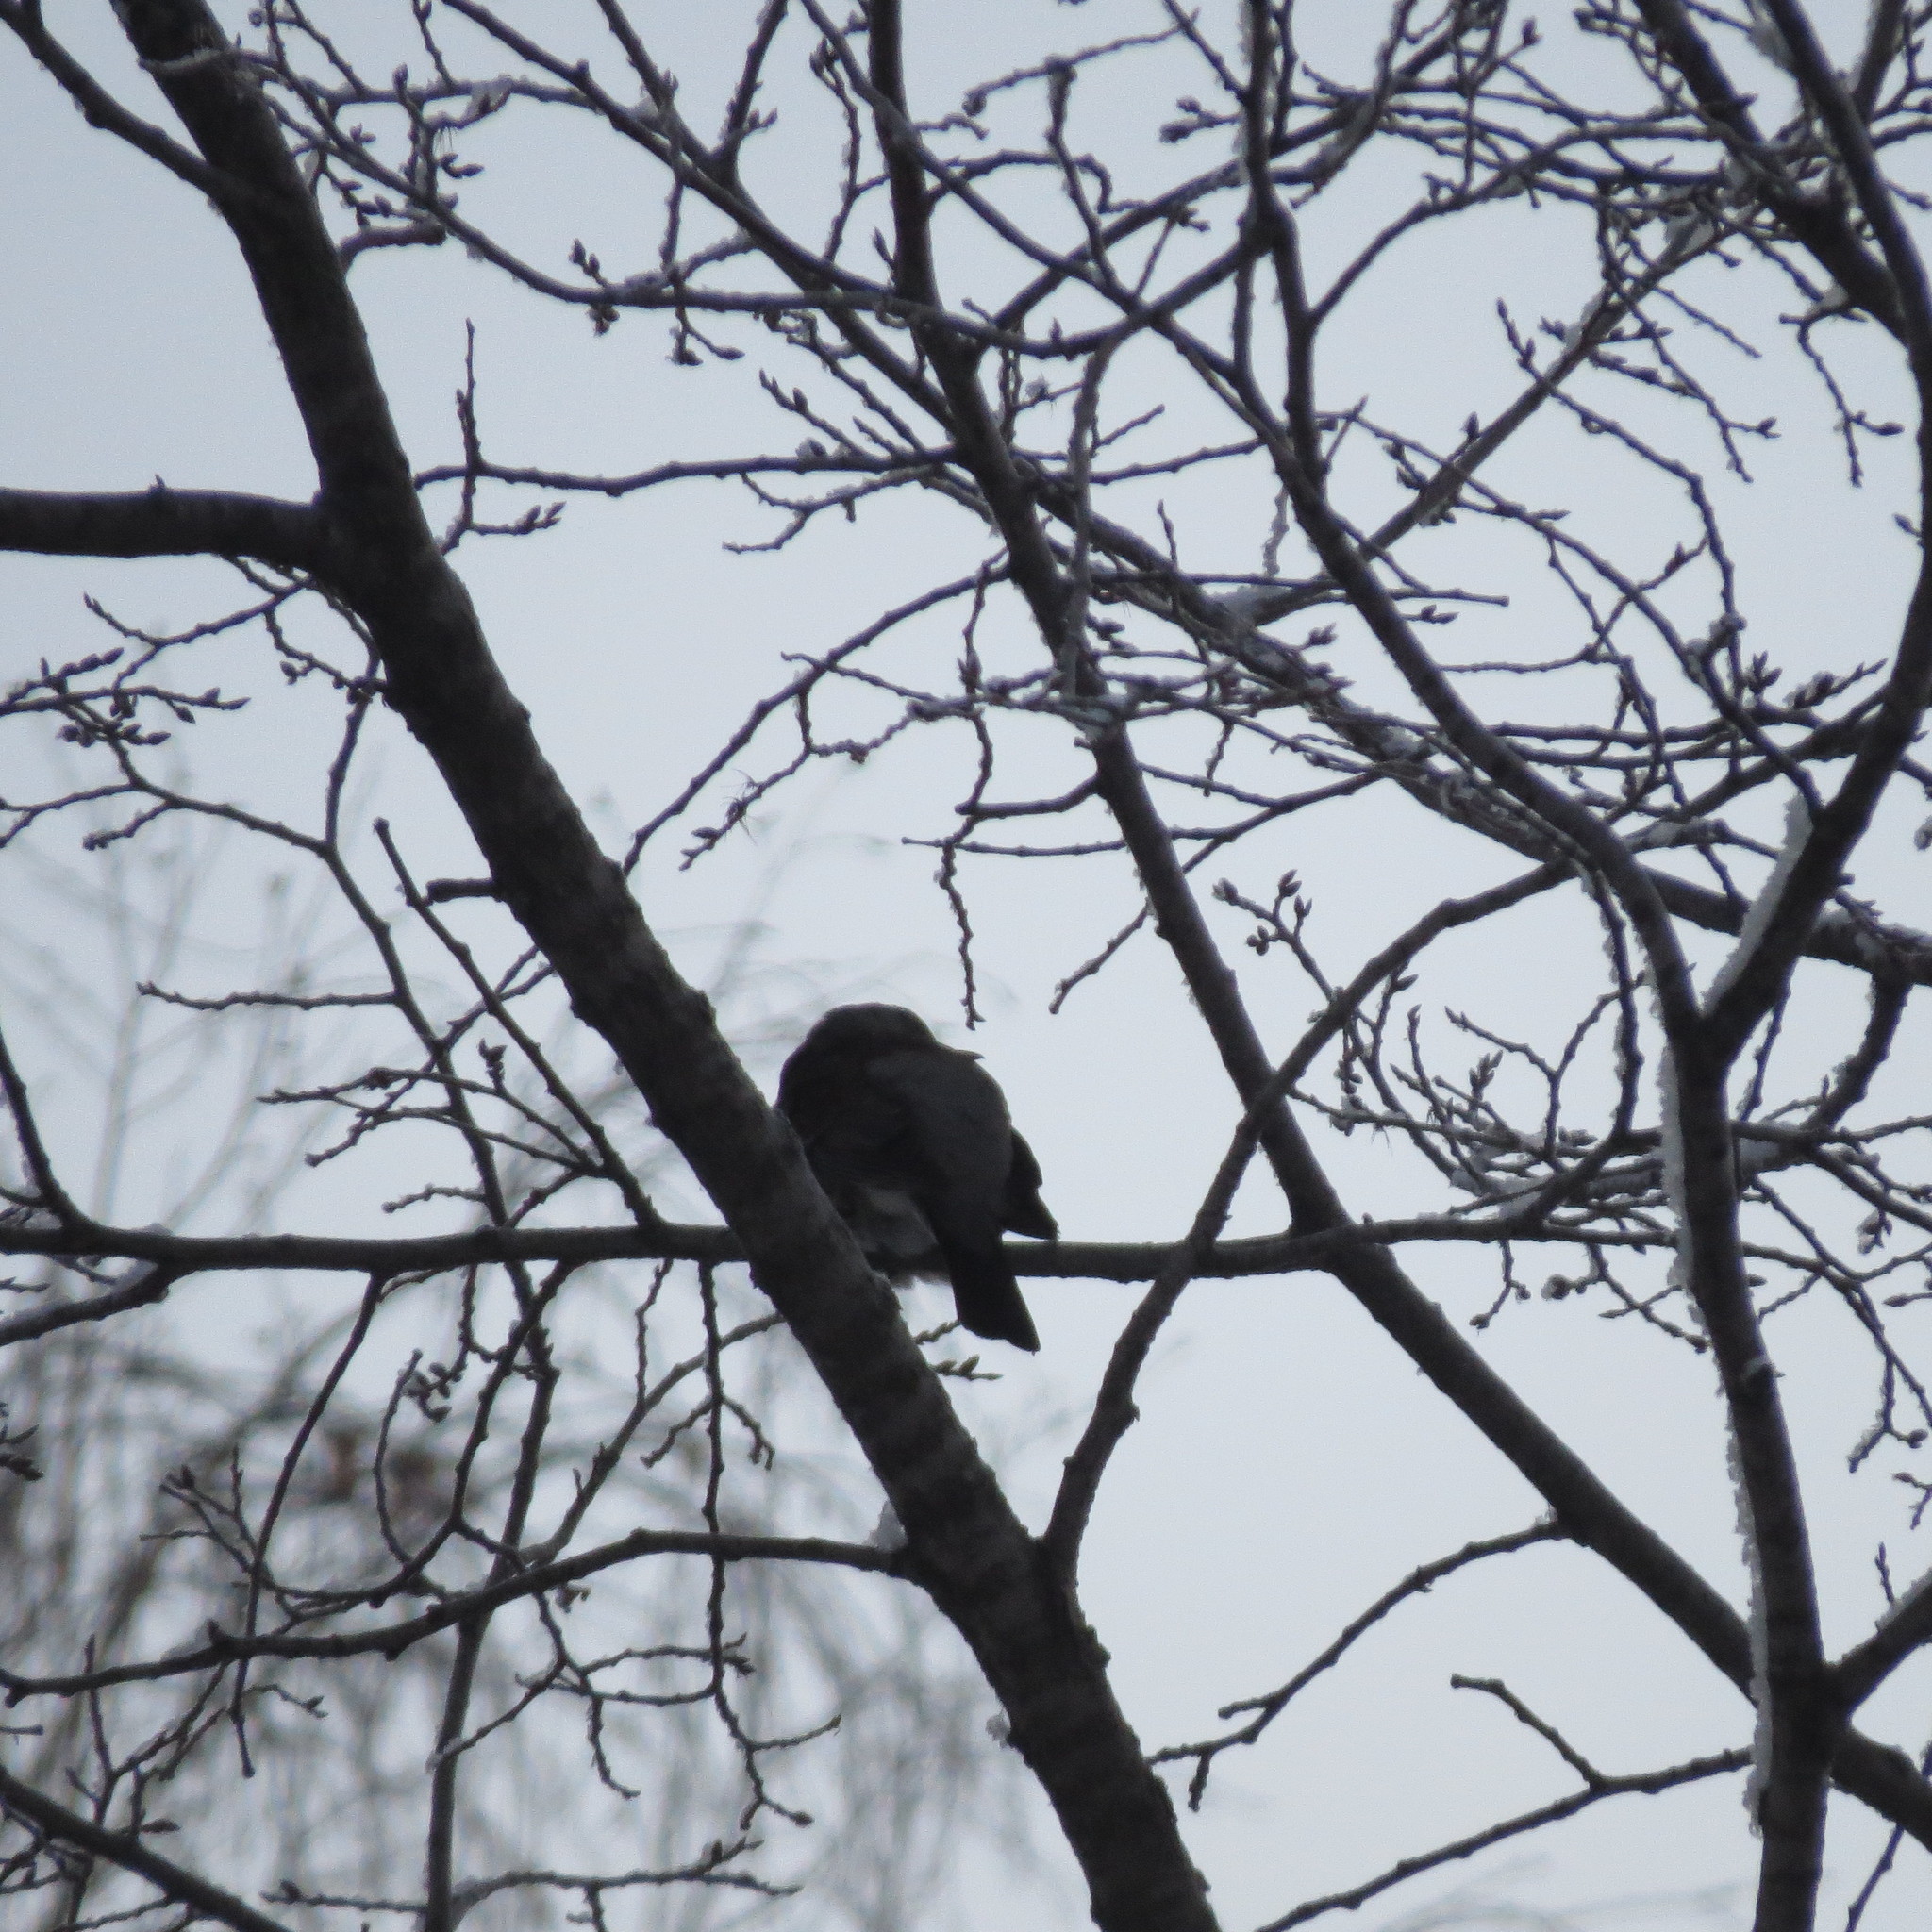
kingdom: Animalia
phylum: Chordata
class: Aves
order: Passeriformes
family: Turdidae
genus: Turdus
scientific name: Turdus pilaris
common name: Fieldfare
